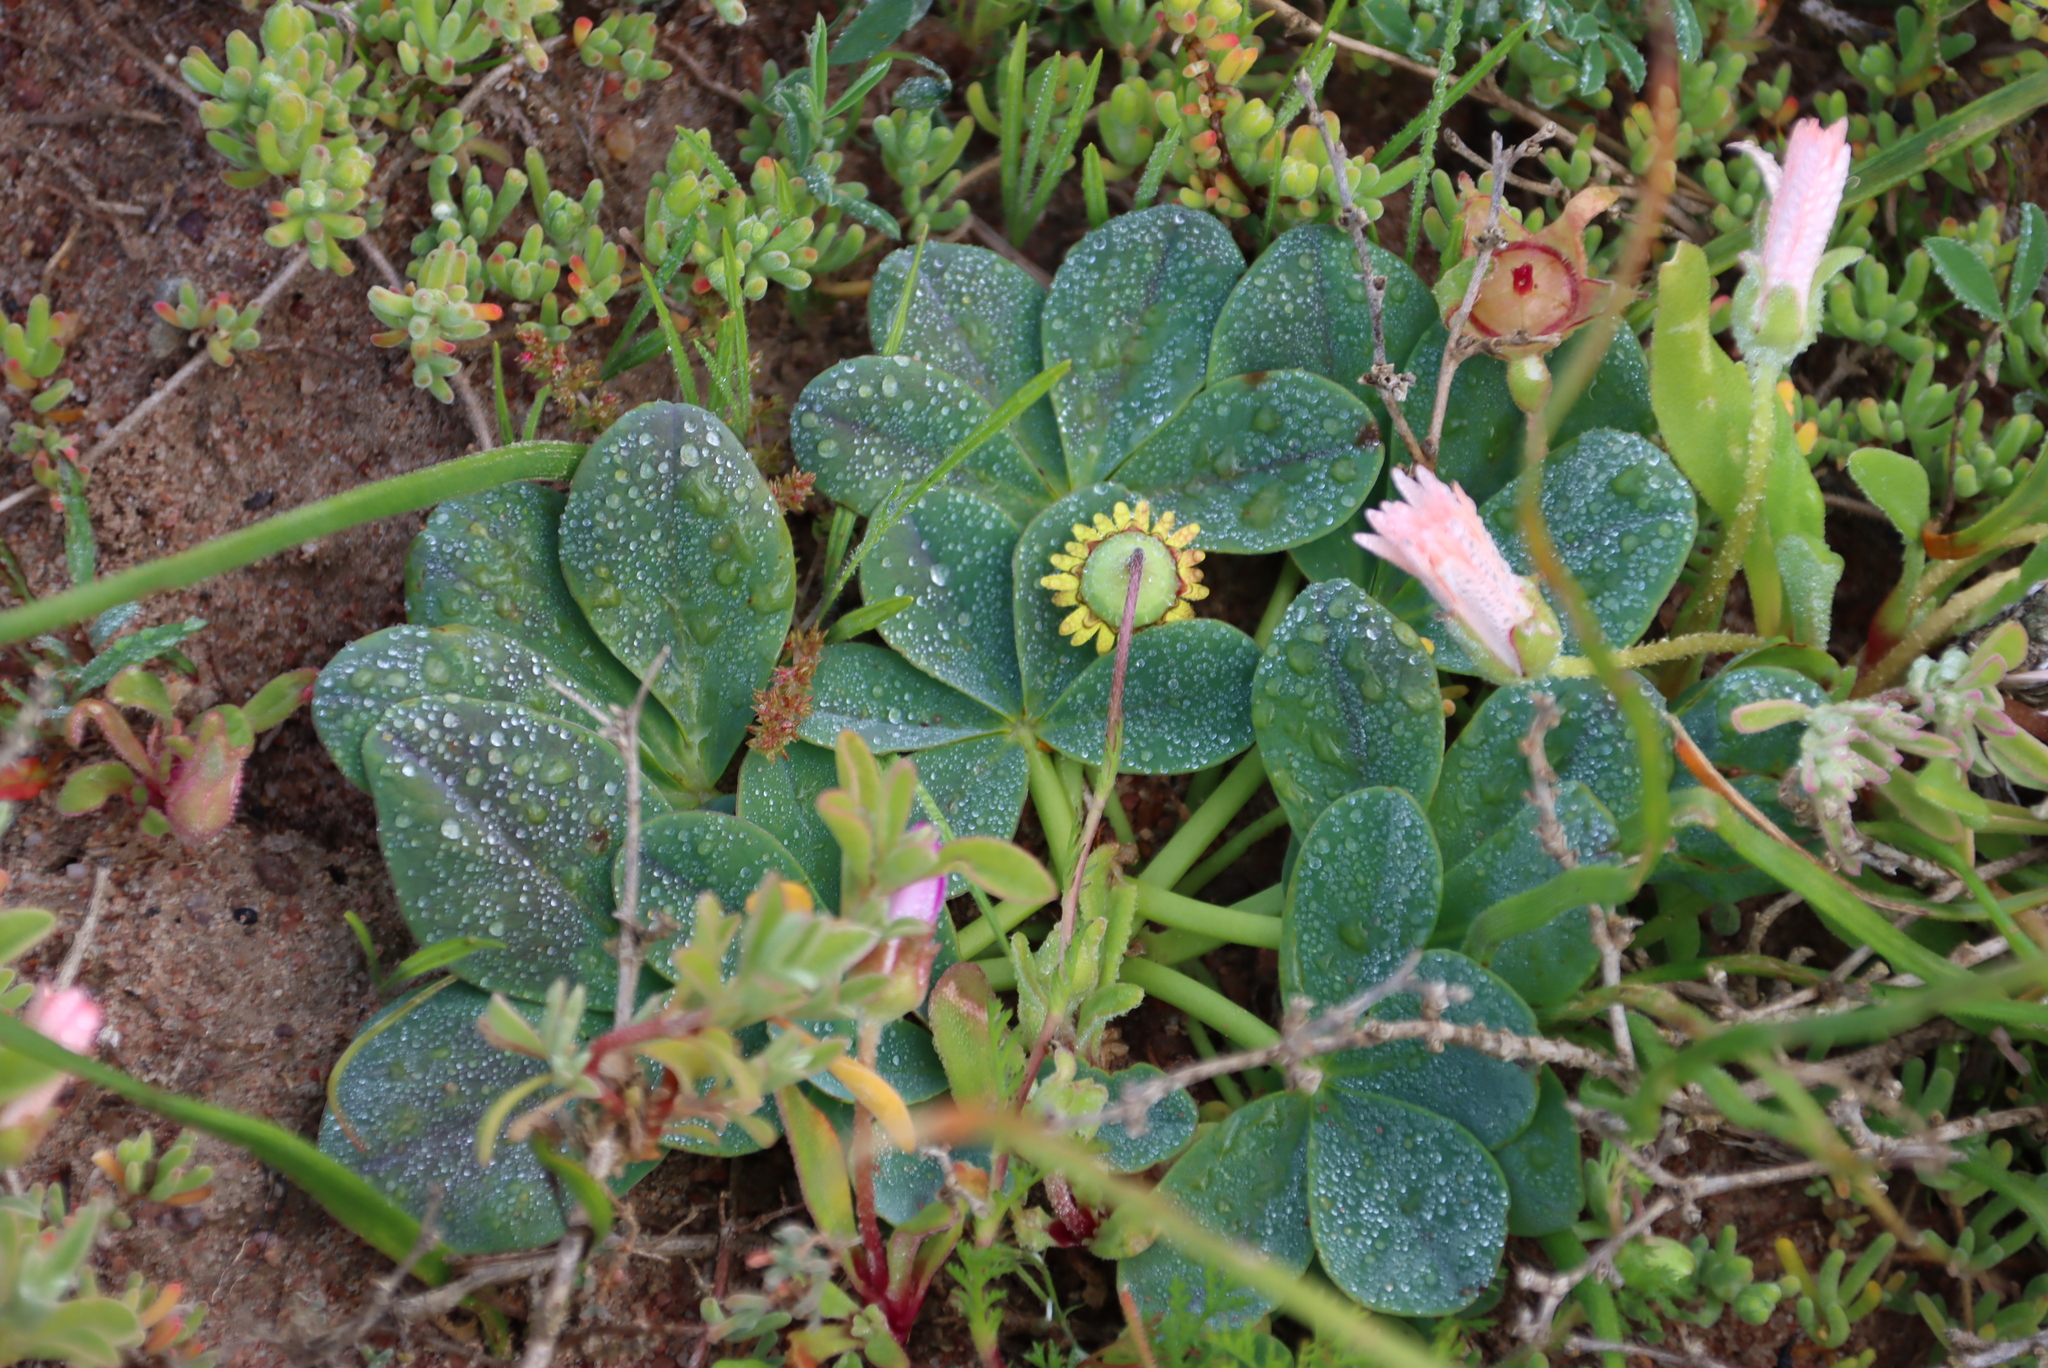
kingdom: Plantae
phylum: Tracheophyta
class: Magnoliopsida
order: Oxalidales
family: Oxalidaceae
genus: Oxalis
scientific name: Oxalis flava
